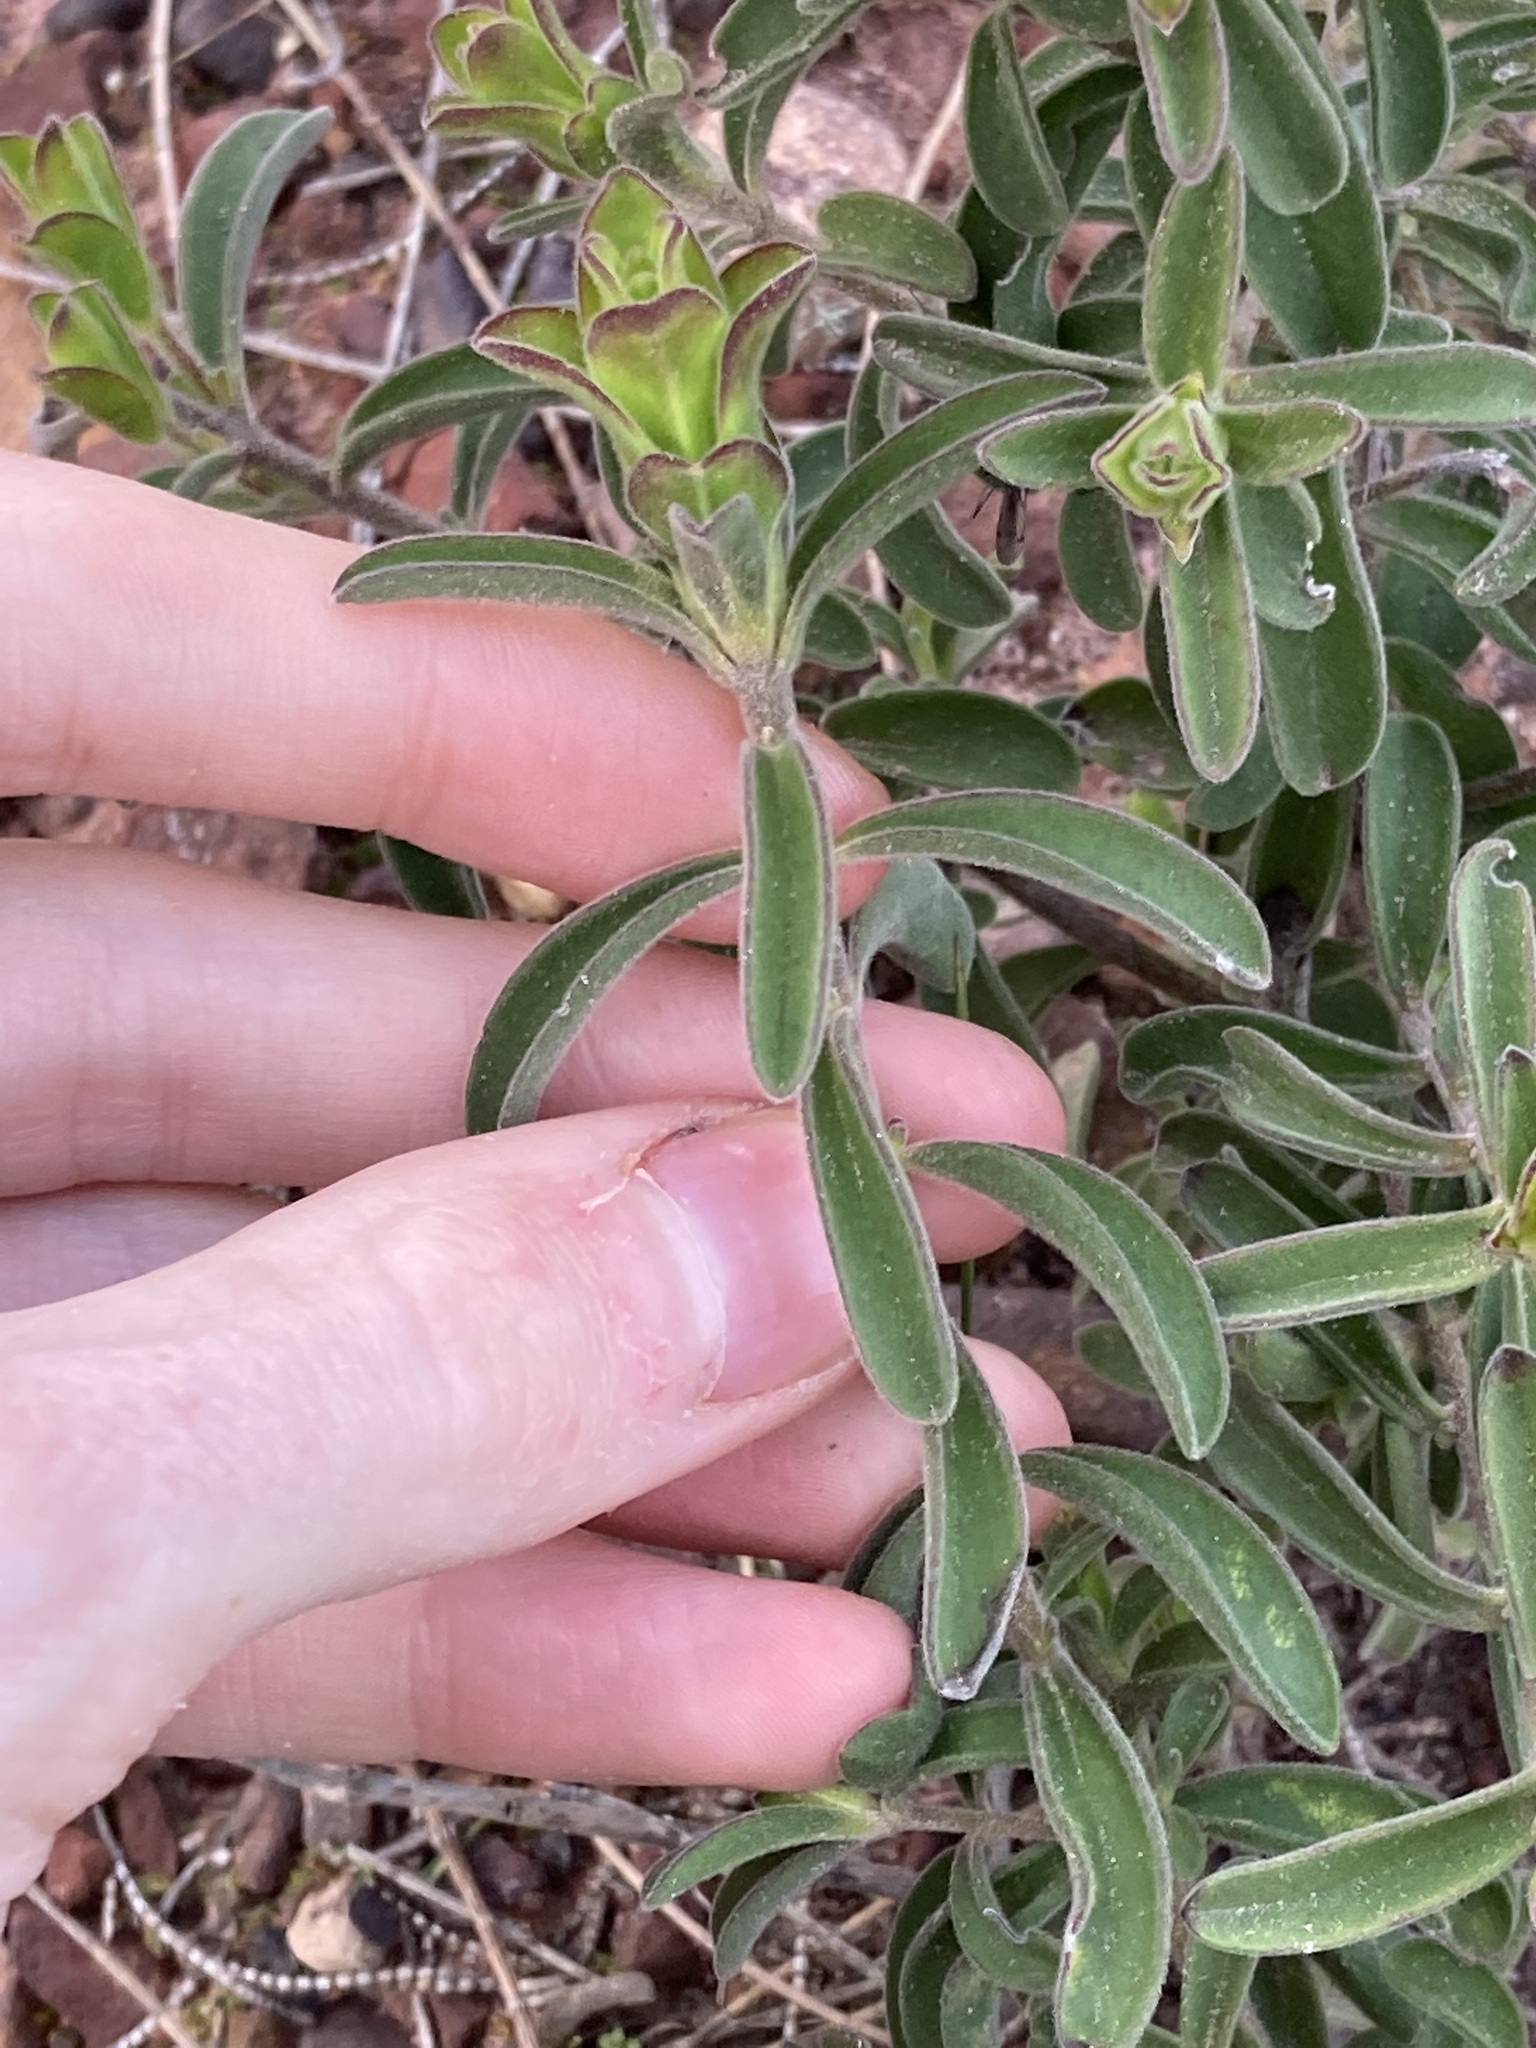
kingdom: Plantae
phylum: Tracheophyta
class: Magnoliopsida
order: Lamiales
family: Lamiaceae
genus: Hemigenia
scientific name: Hemigenia incana
